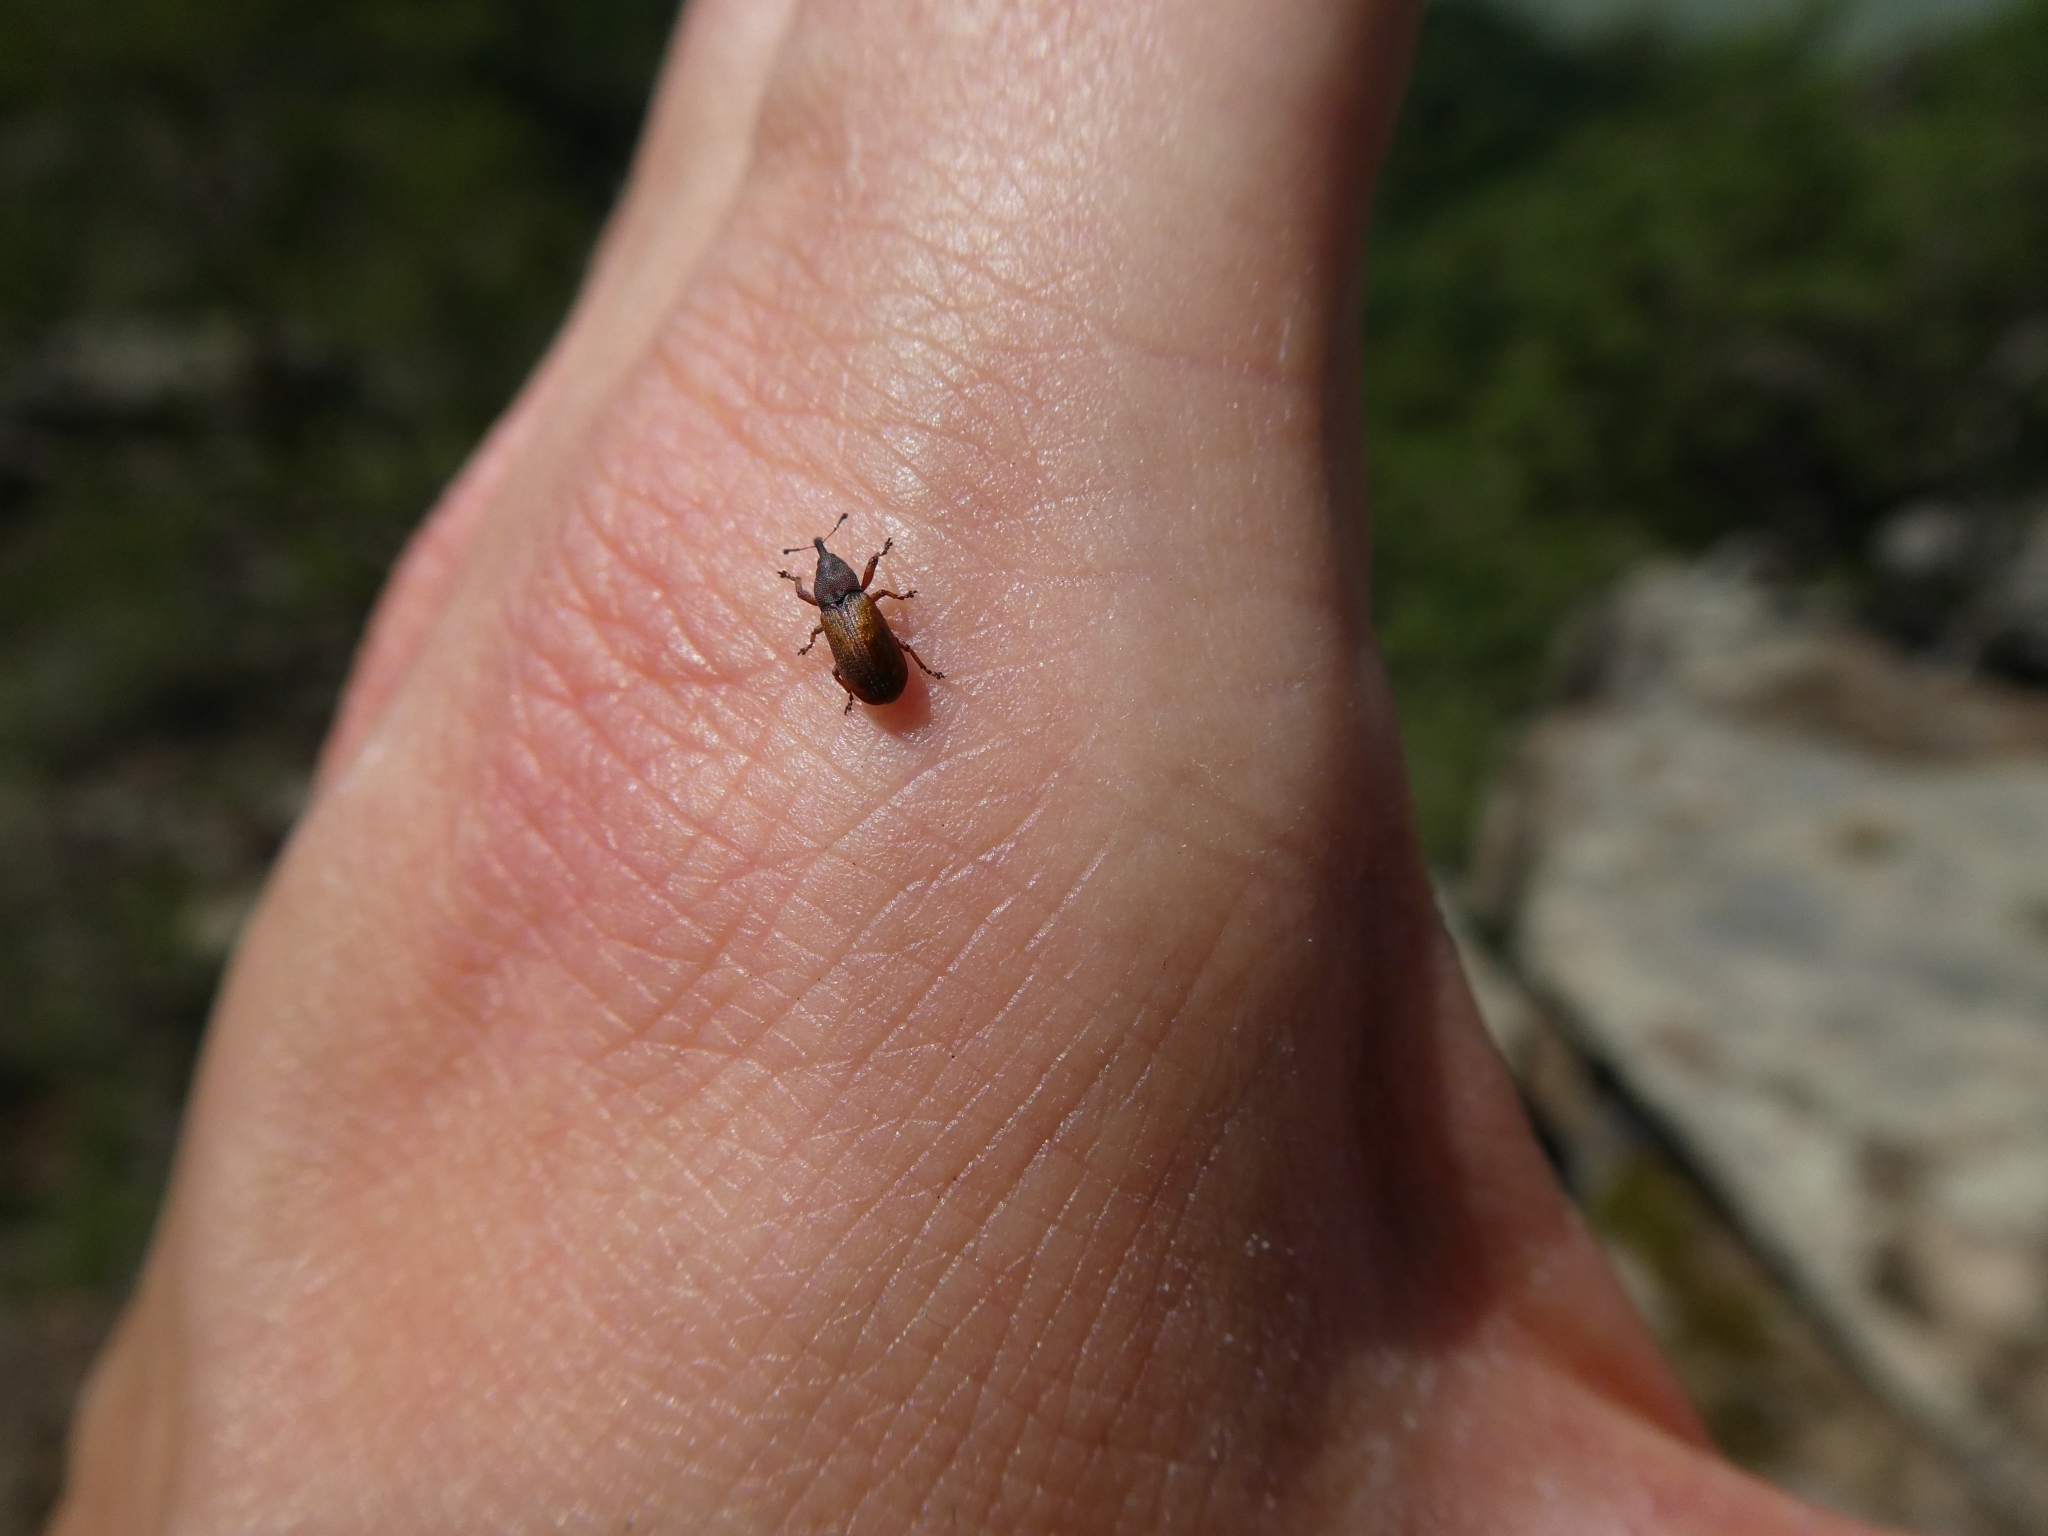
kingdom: Animalia
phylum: Arthropoda
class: Insecta
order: Coleoptera
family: Curculionidae
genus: Magdalis
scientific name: Magdalis rufa
